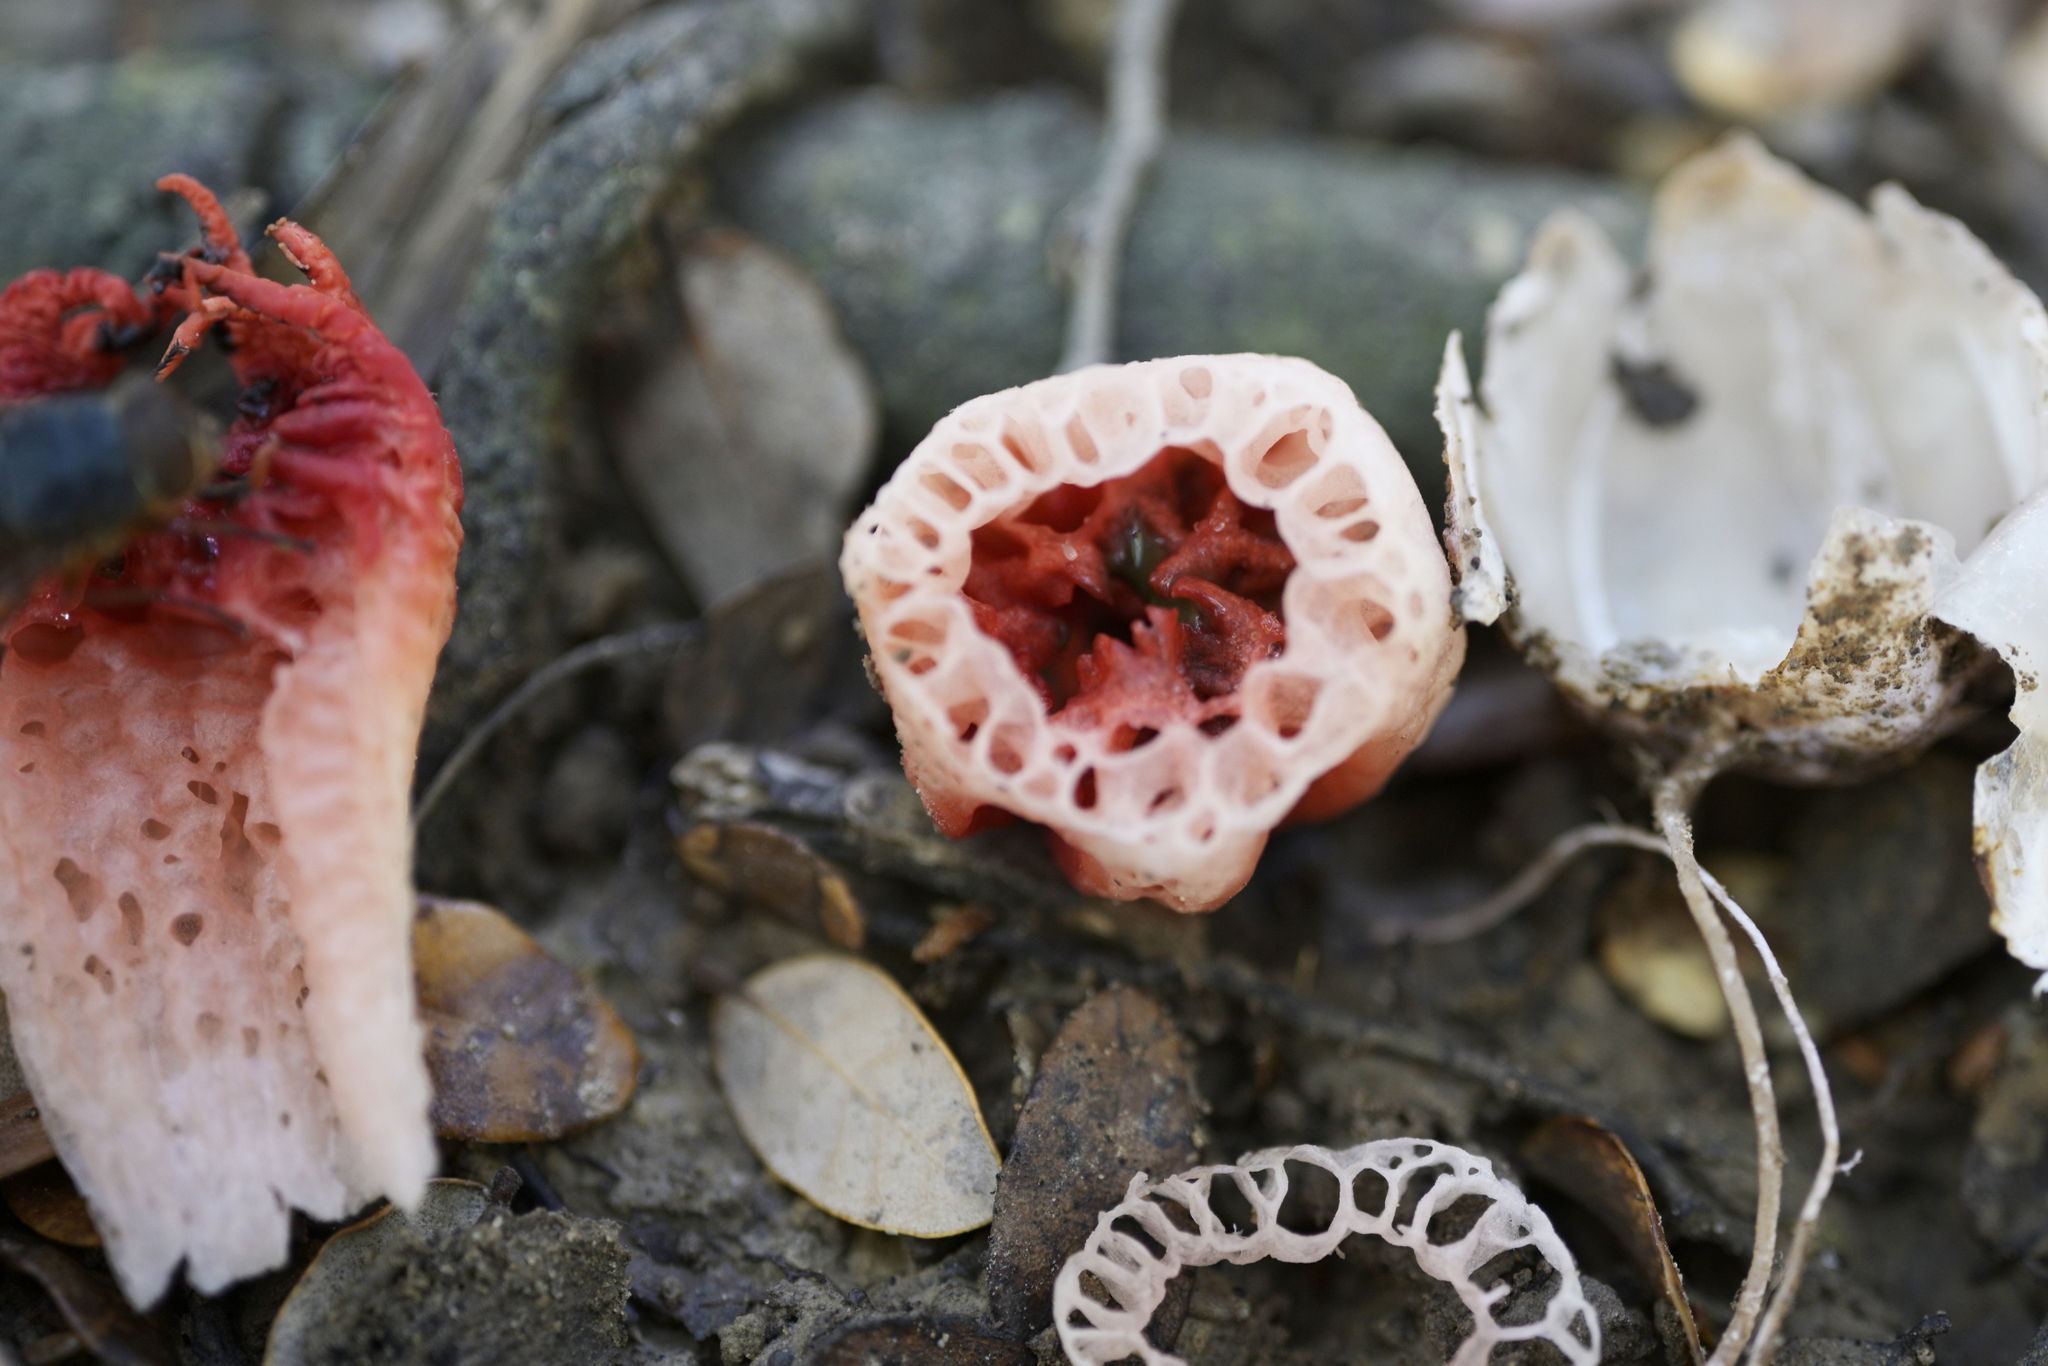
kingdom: Fungi
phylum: Basidiomycota
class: Agaricomycetes
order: Phallales
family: Phallaceae
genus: Aseroe
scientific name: Aseroe rubra
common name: Starfish fungus
